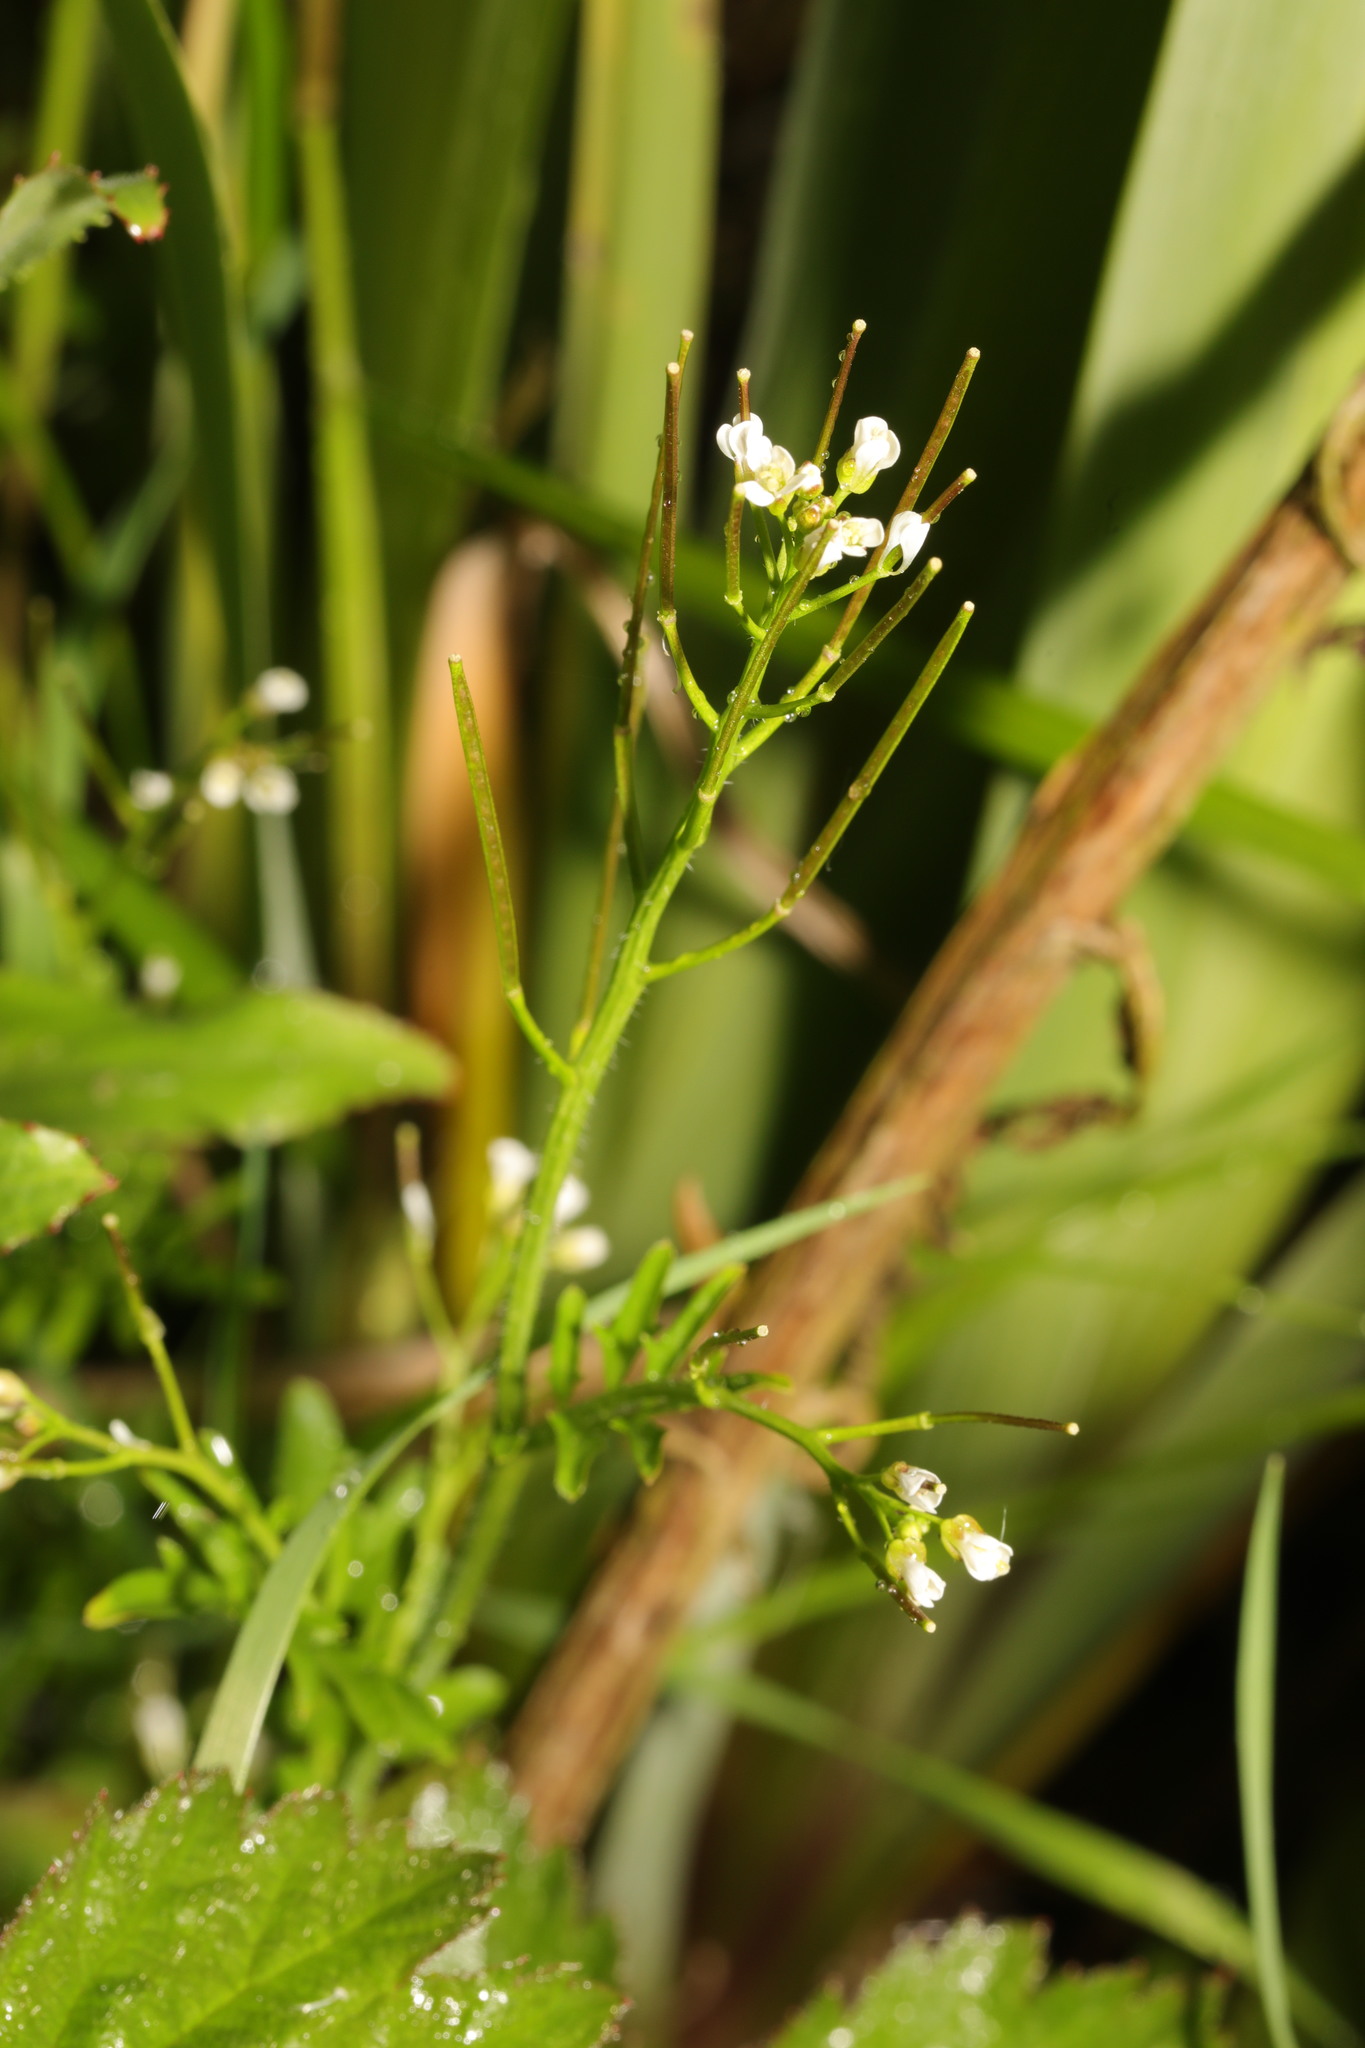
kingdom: Plantae
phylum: Tracheophyta
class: Magnoliopsida
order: Brassicales
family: Brassicaceae
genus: Cardamine
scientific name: Cardamine flexuosa
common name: Woodland bittercress
